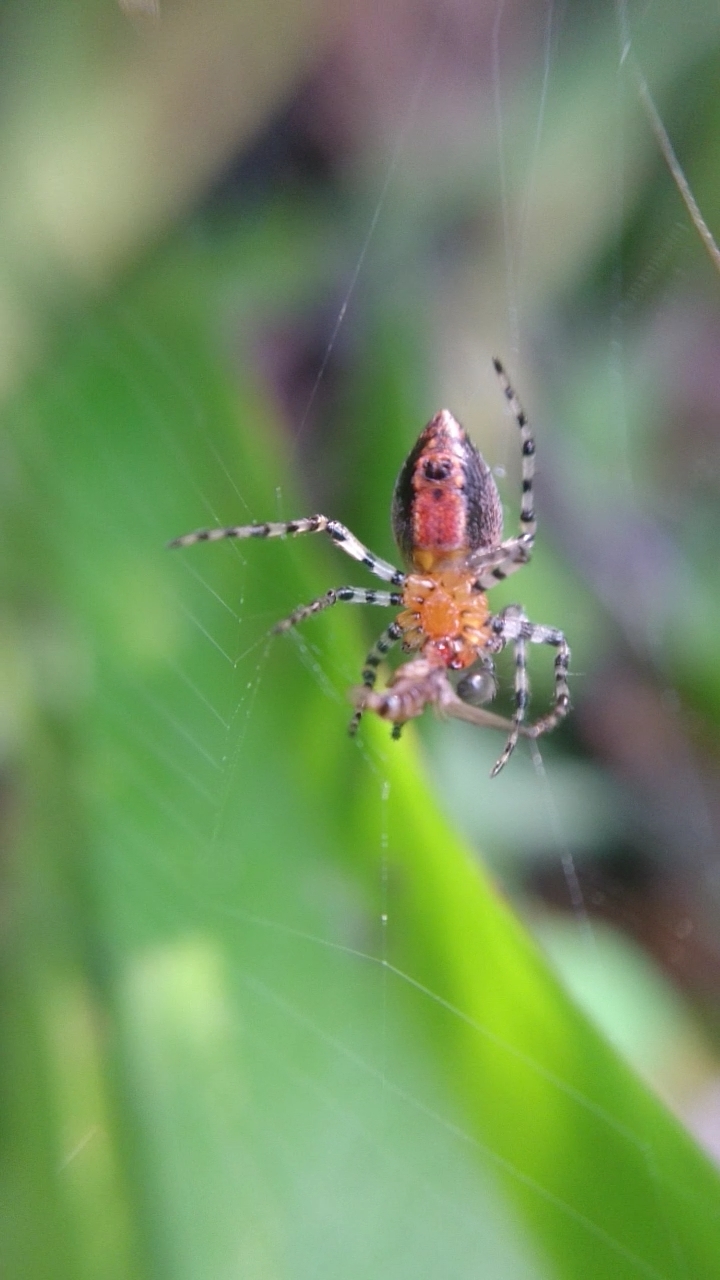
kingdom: Animalia
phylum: Arthropoda
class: Arachnida
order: Araneae
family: Araneidae
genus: Alpaida
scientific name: Alpaida gallardoi
